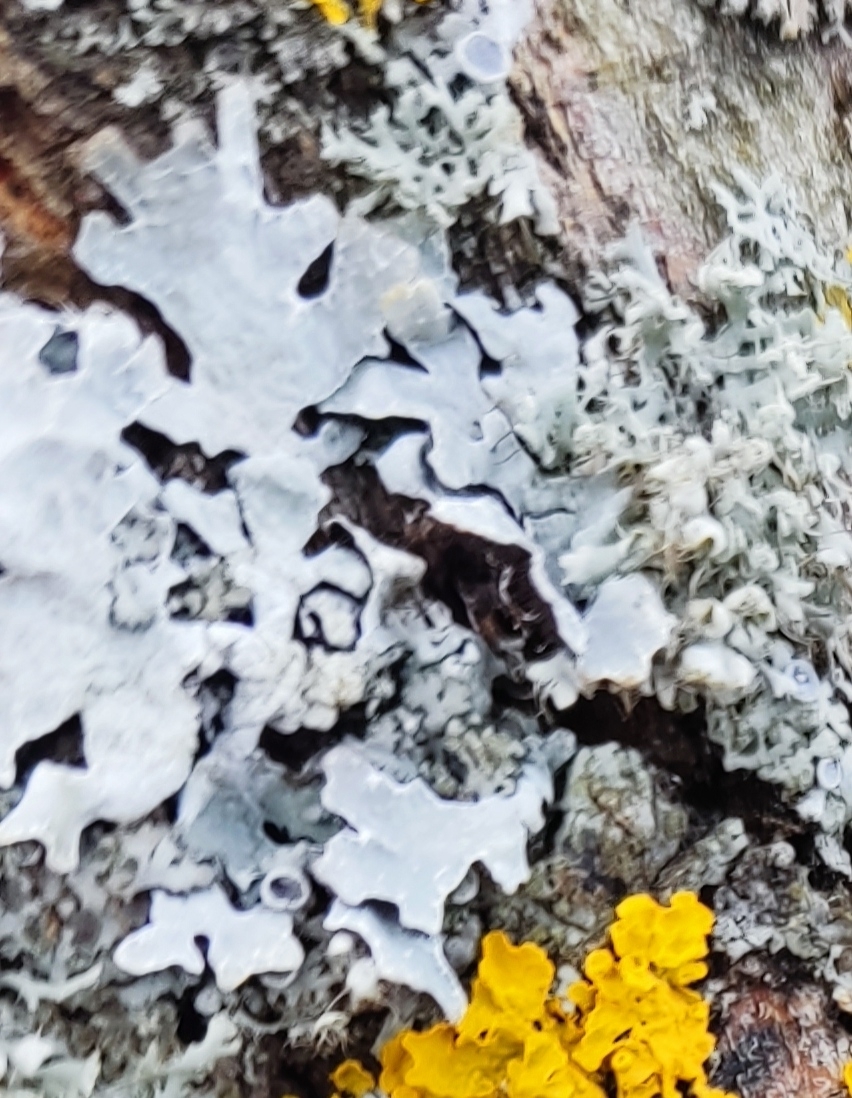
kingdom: Fungi
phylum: Ascomycota
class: Lecanoromycetes
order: Lecanorales
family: Parmeliaceae
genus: Parmelia
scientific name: Parmelia sulcata
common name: Netted shield lichen
